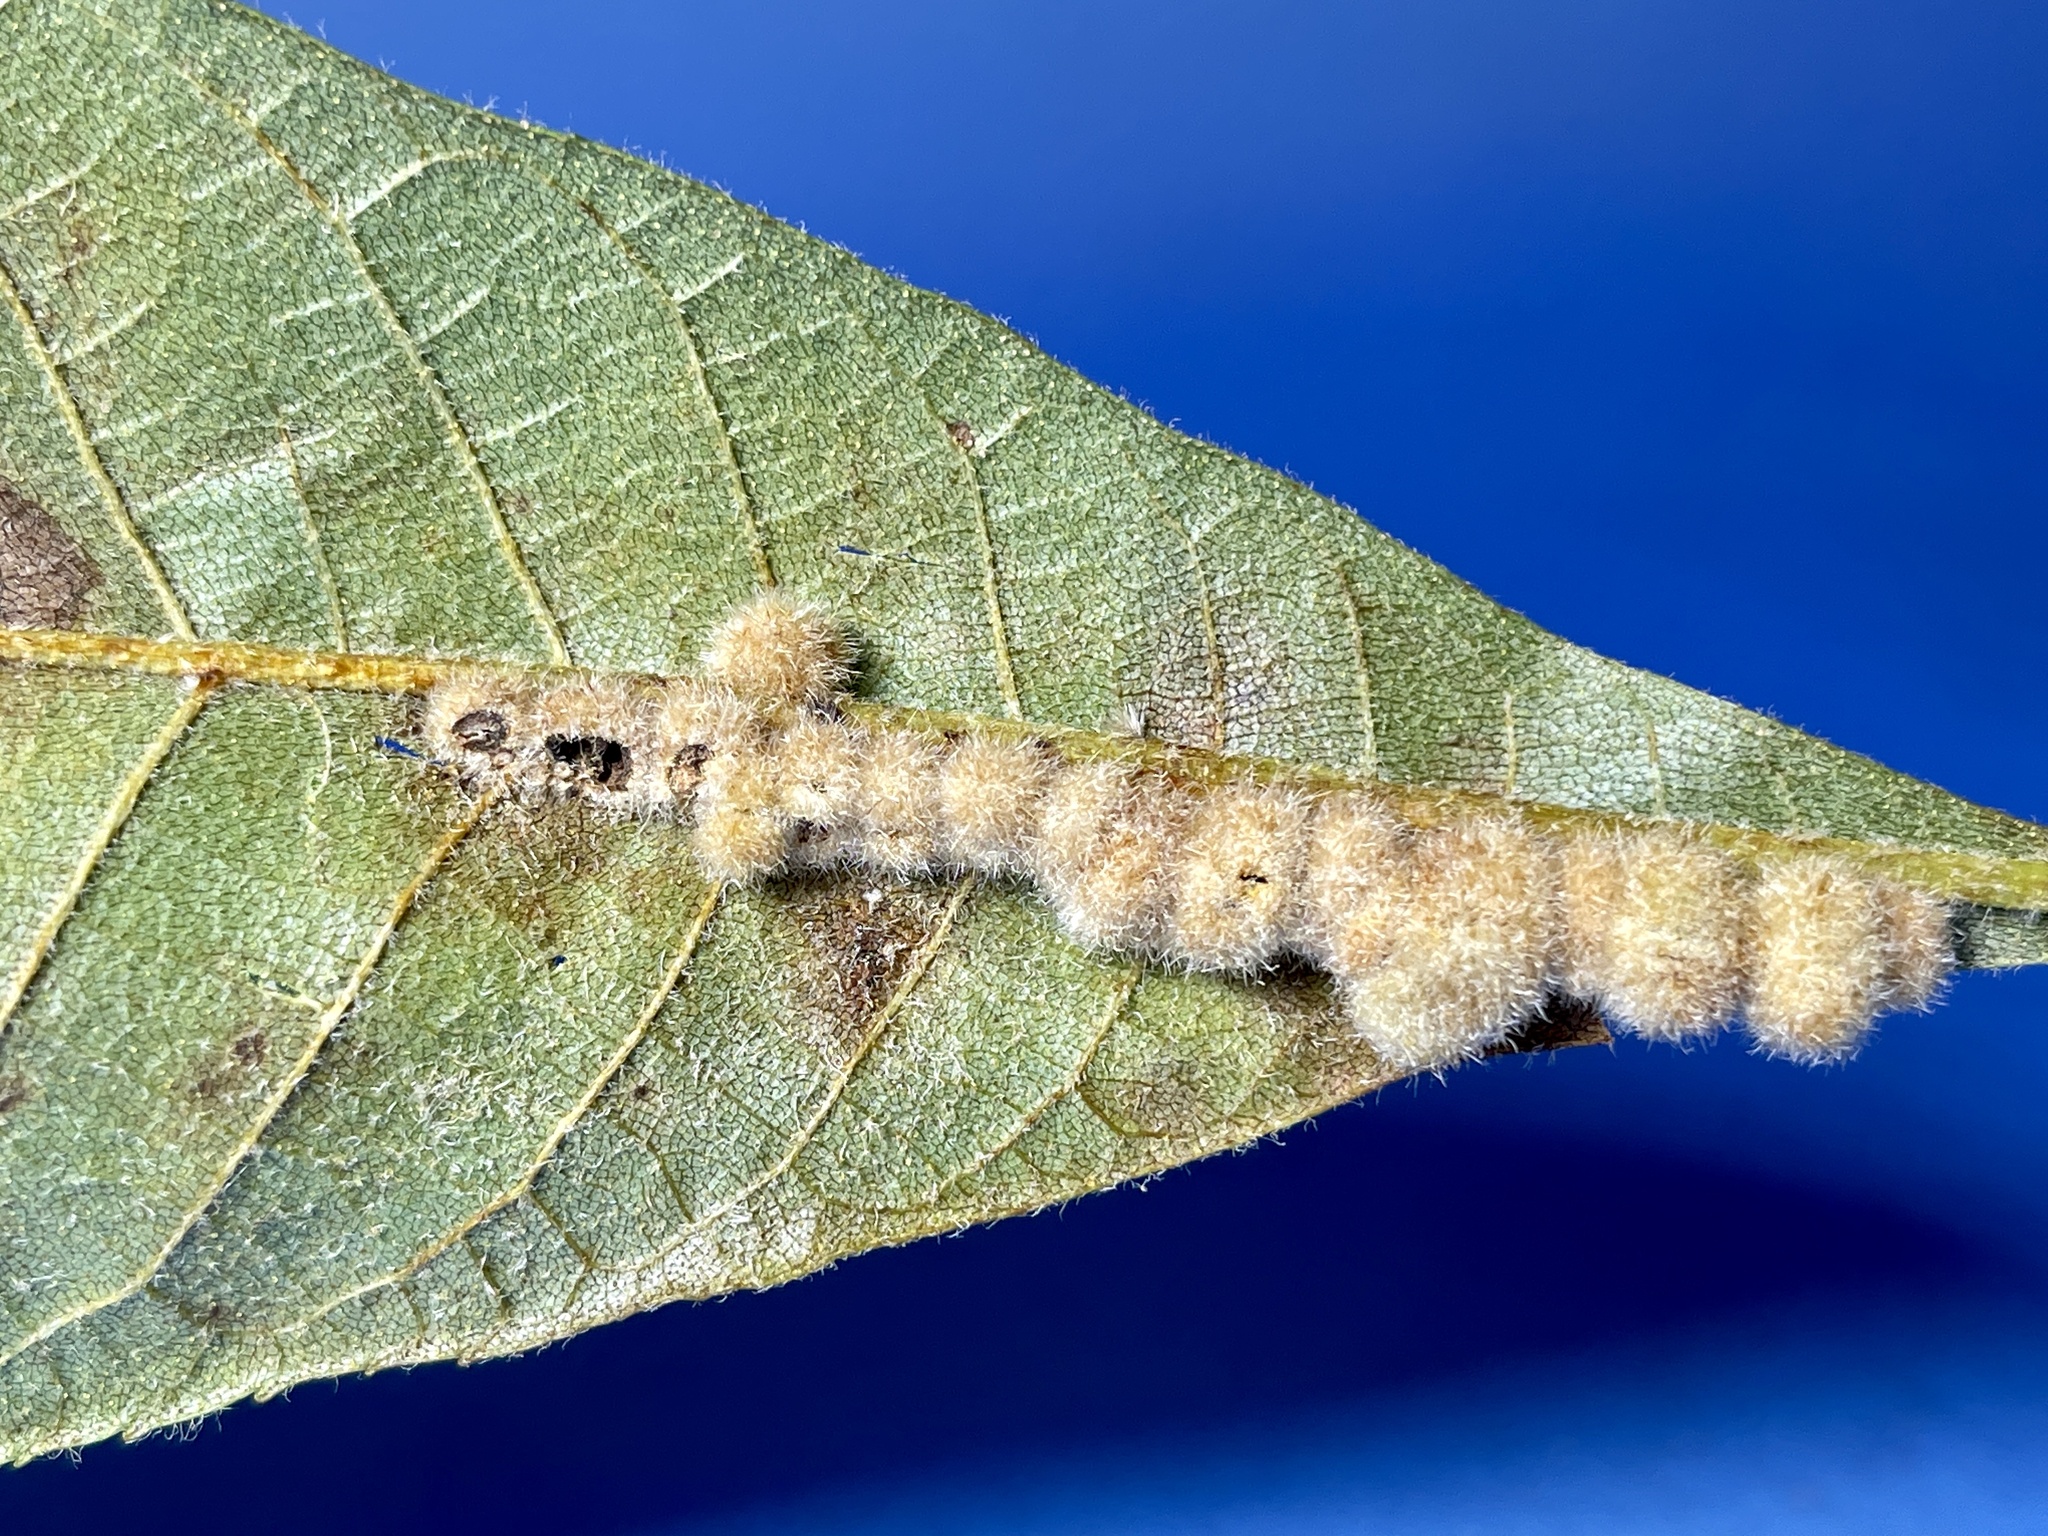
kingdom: Animalia
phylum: Arthropoda
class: Insecta
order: Diptera
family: Cecidomyiidae
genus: Caryomyia
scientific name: Caryomyia aggregata
